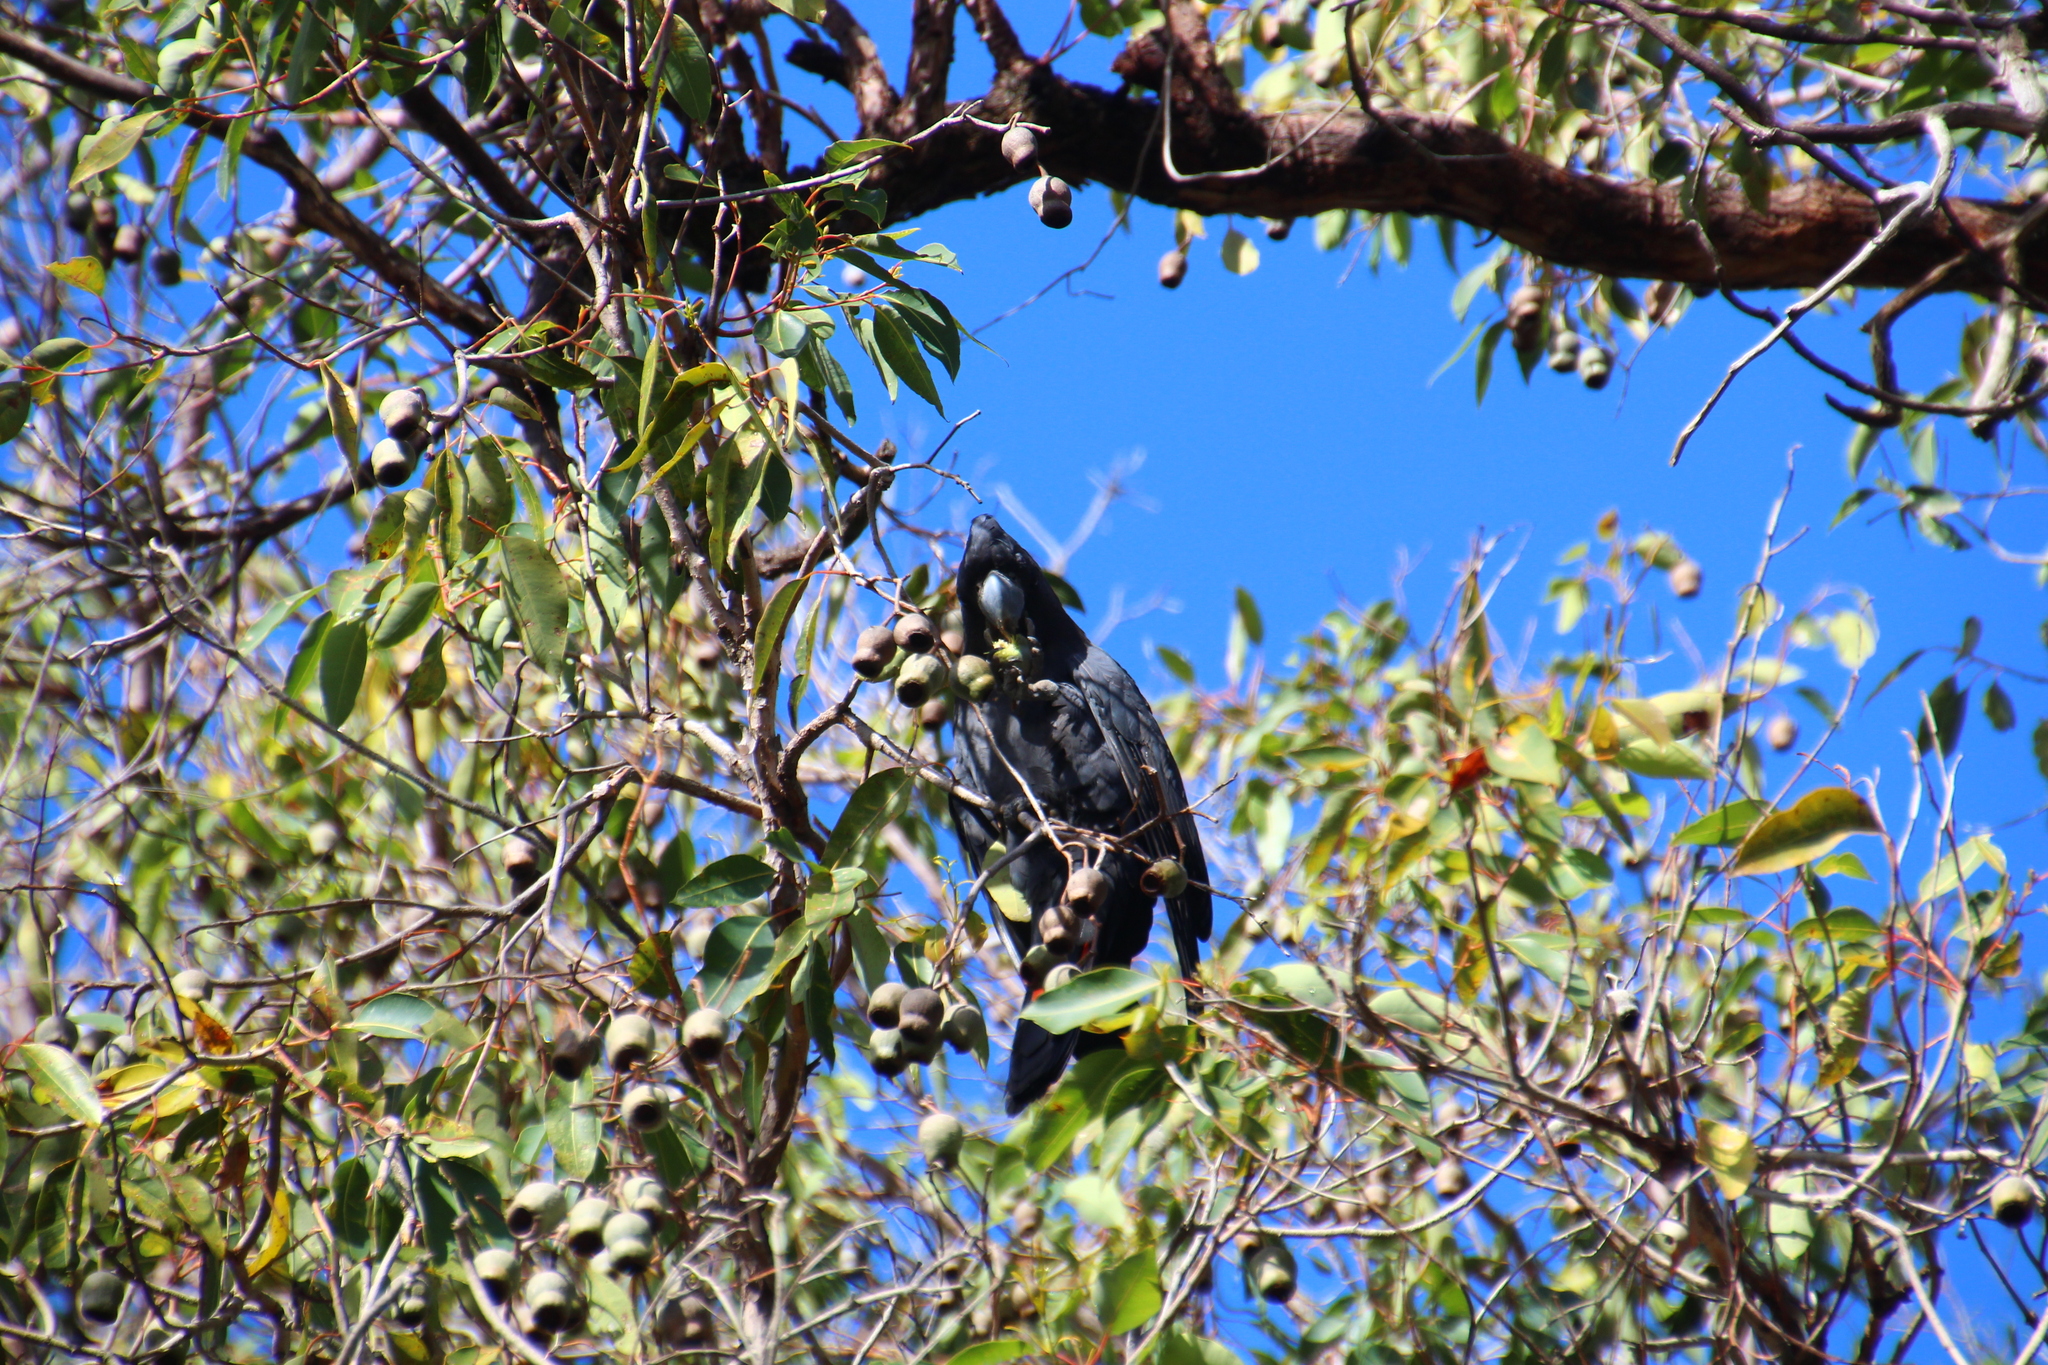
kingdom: Animalia
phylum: Chordata
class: Aves
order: Psittaciformes
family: Psittacidae
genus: Calyptorhynchus
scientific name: Calyptorhynchus banksii
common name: Red-tailed black cockatoo
